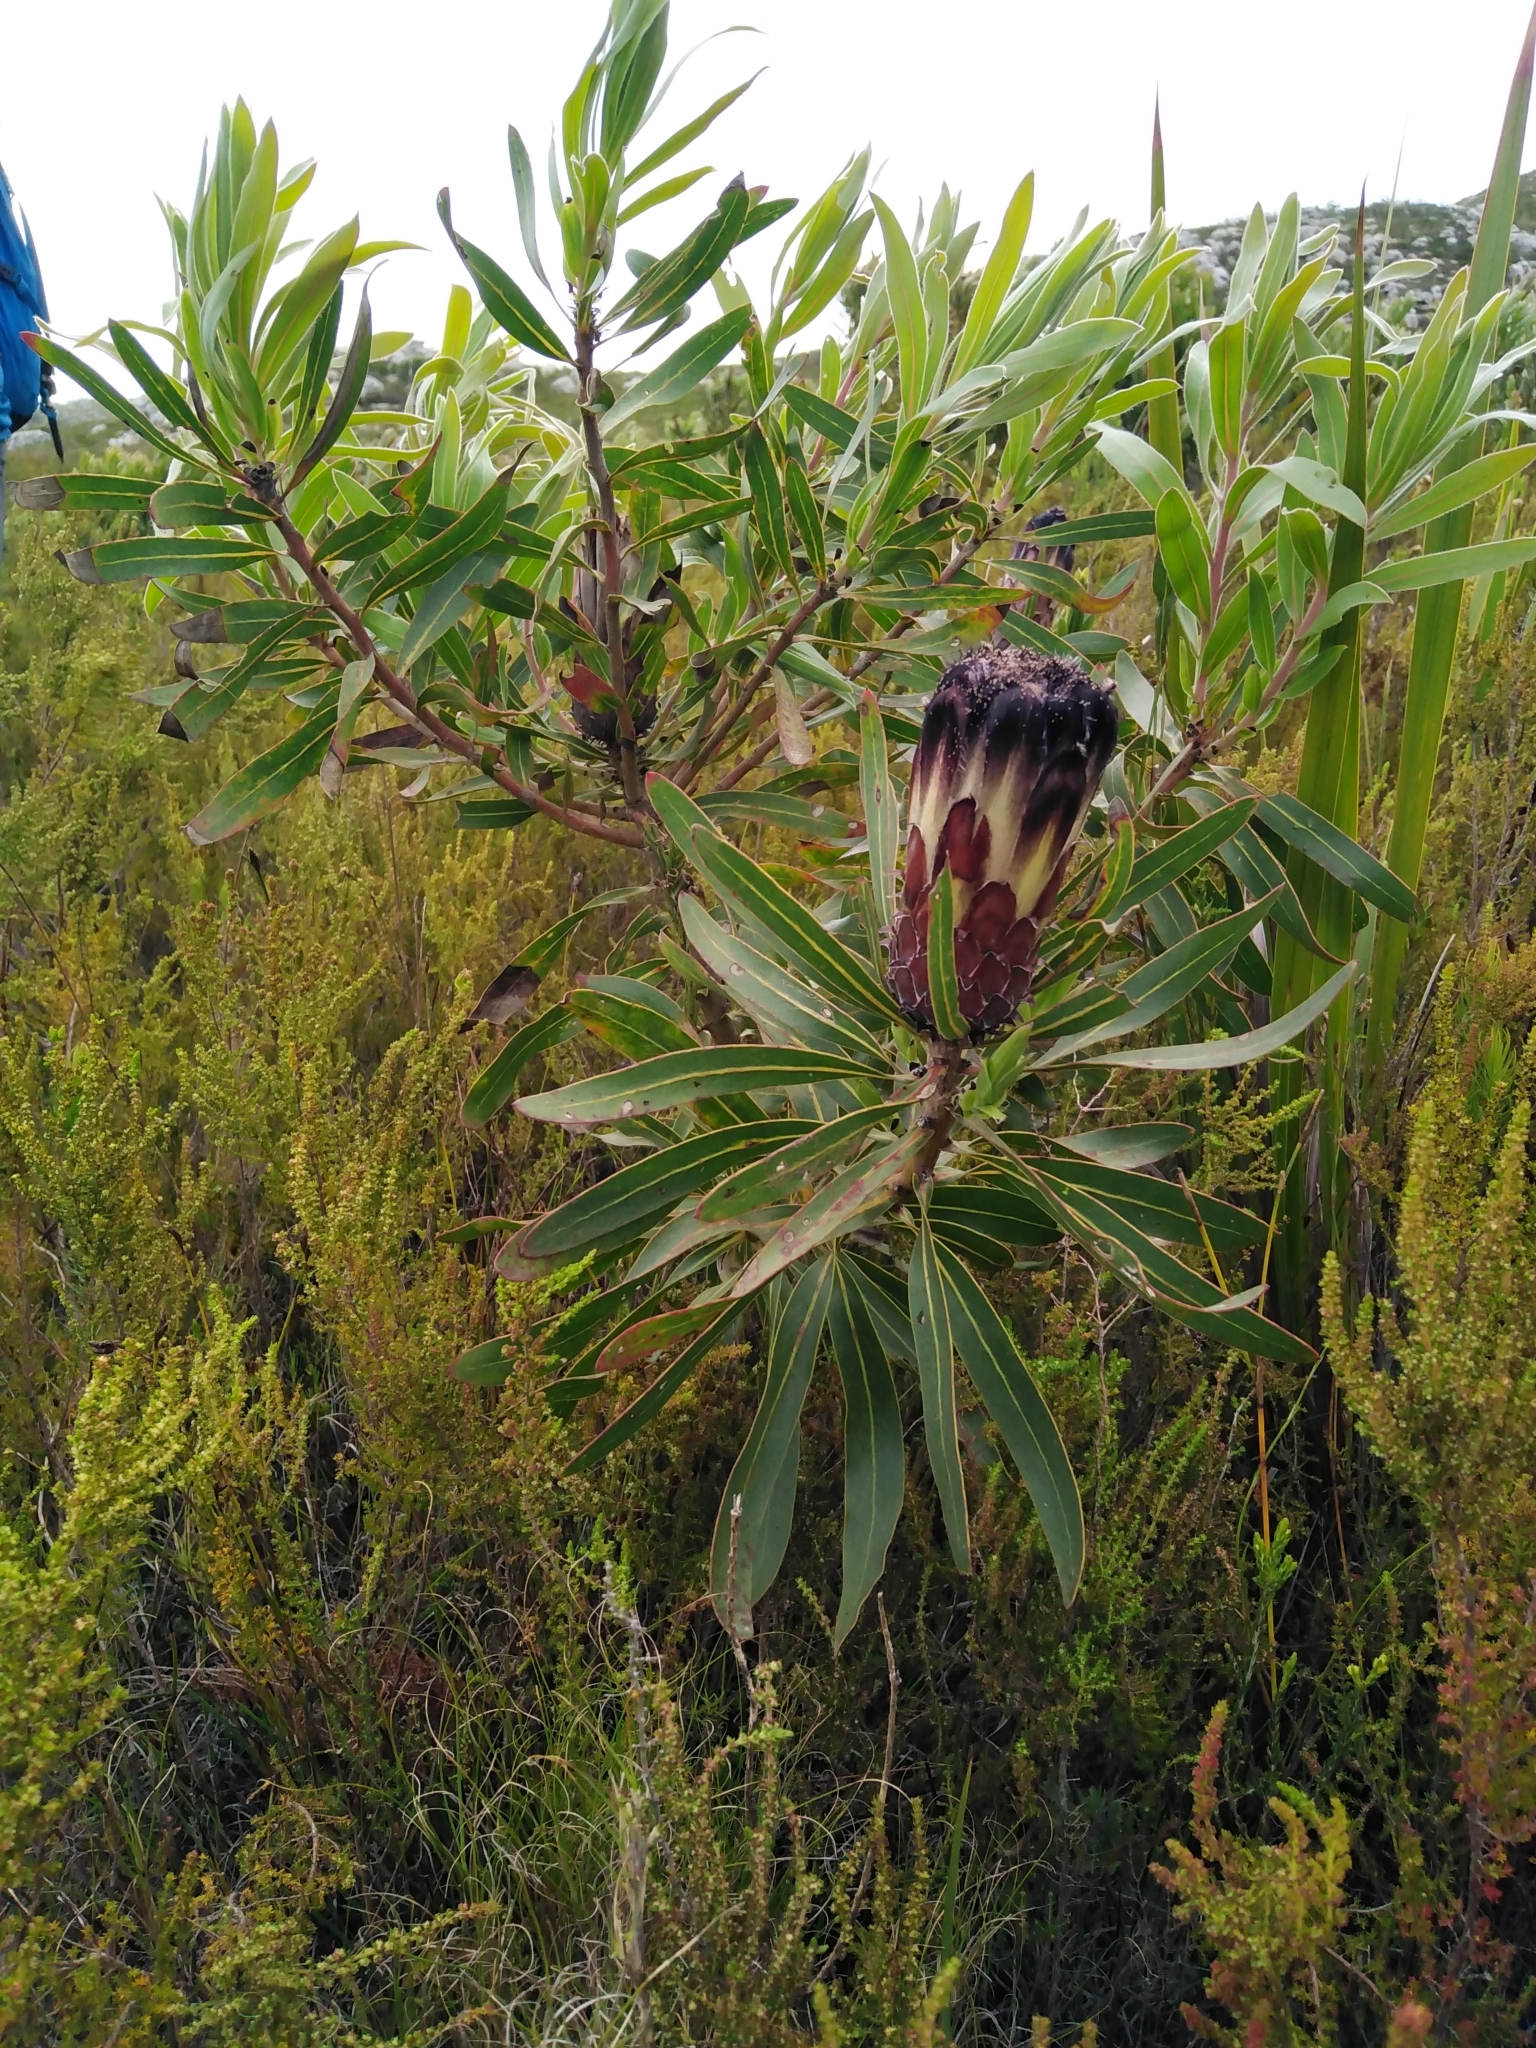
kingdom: Plantae
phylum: Tracheophyta
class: Magnoliopsida
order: Proteales
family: Proteaceae
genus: Protea
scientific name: Protea lepidocarpodendron
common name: Black-bearded protea
